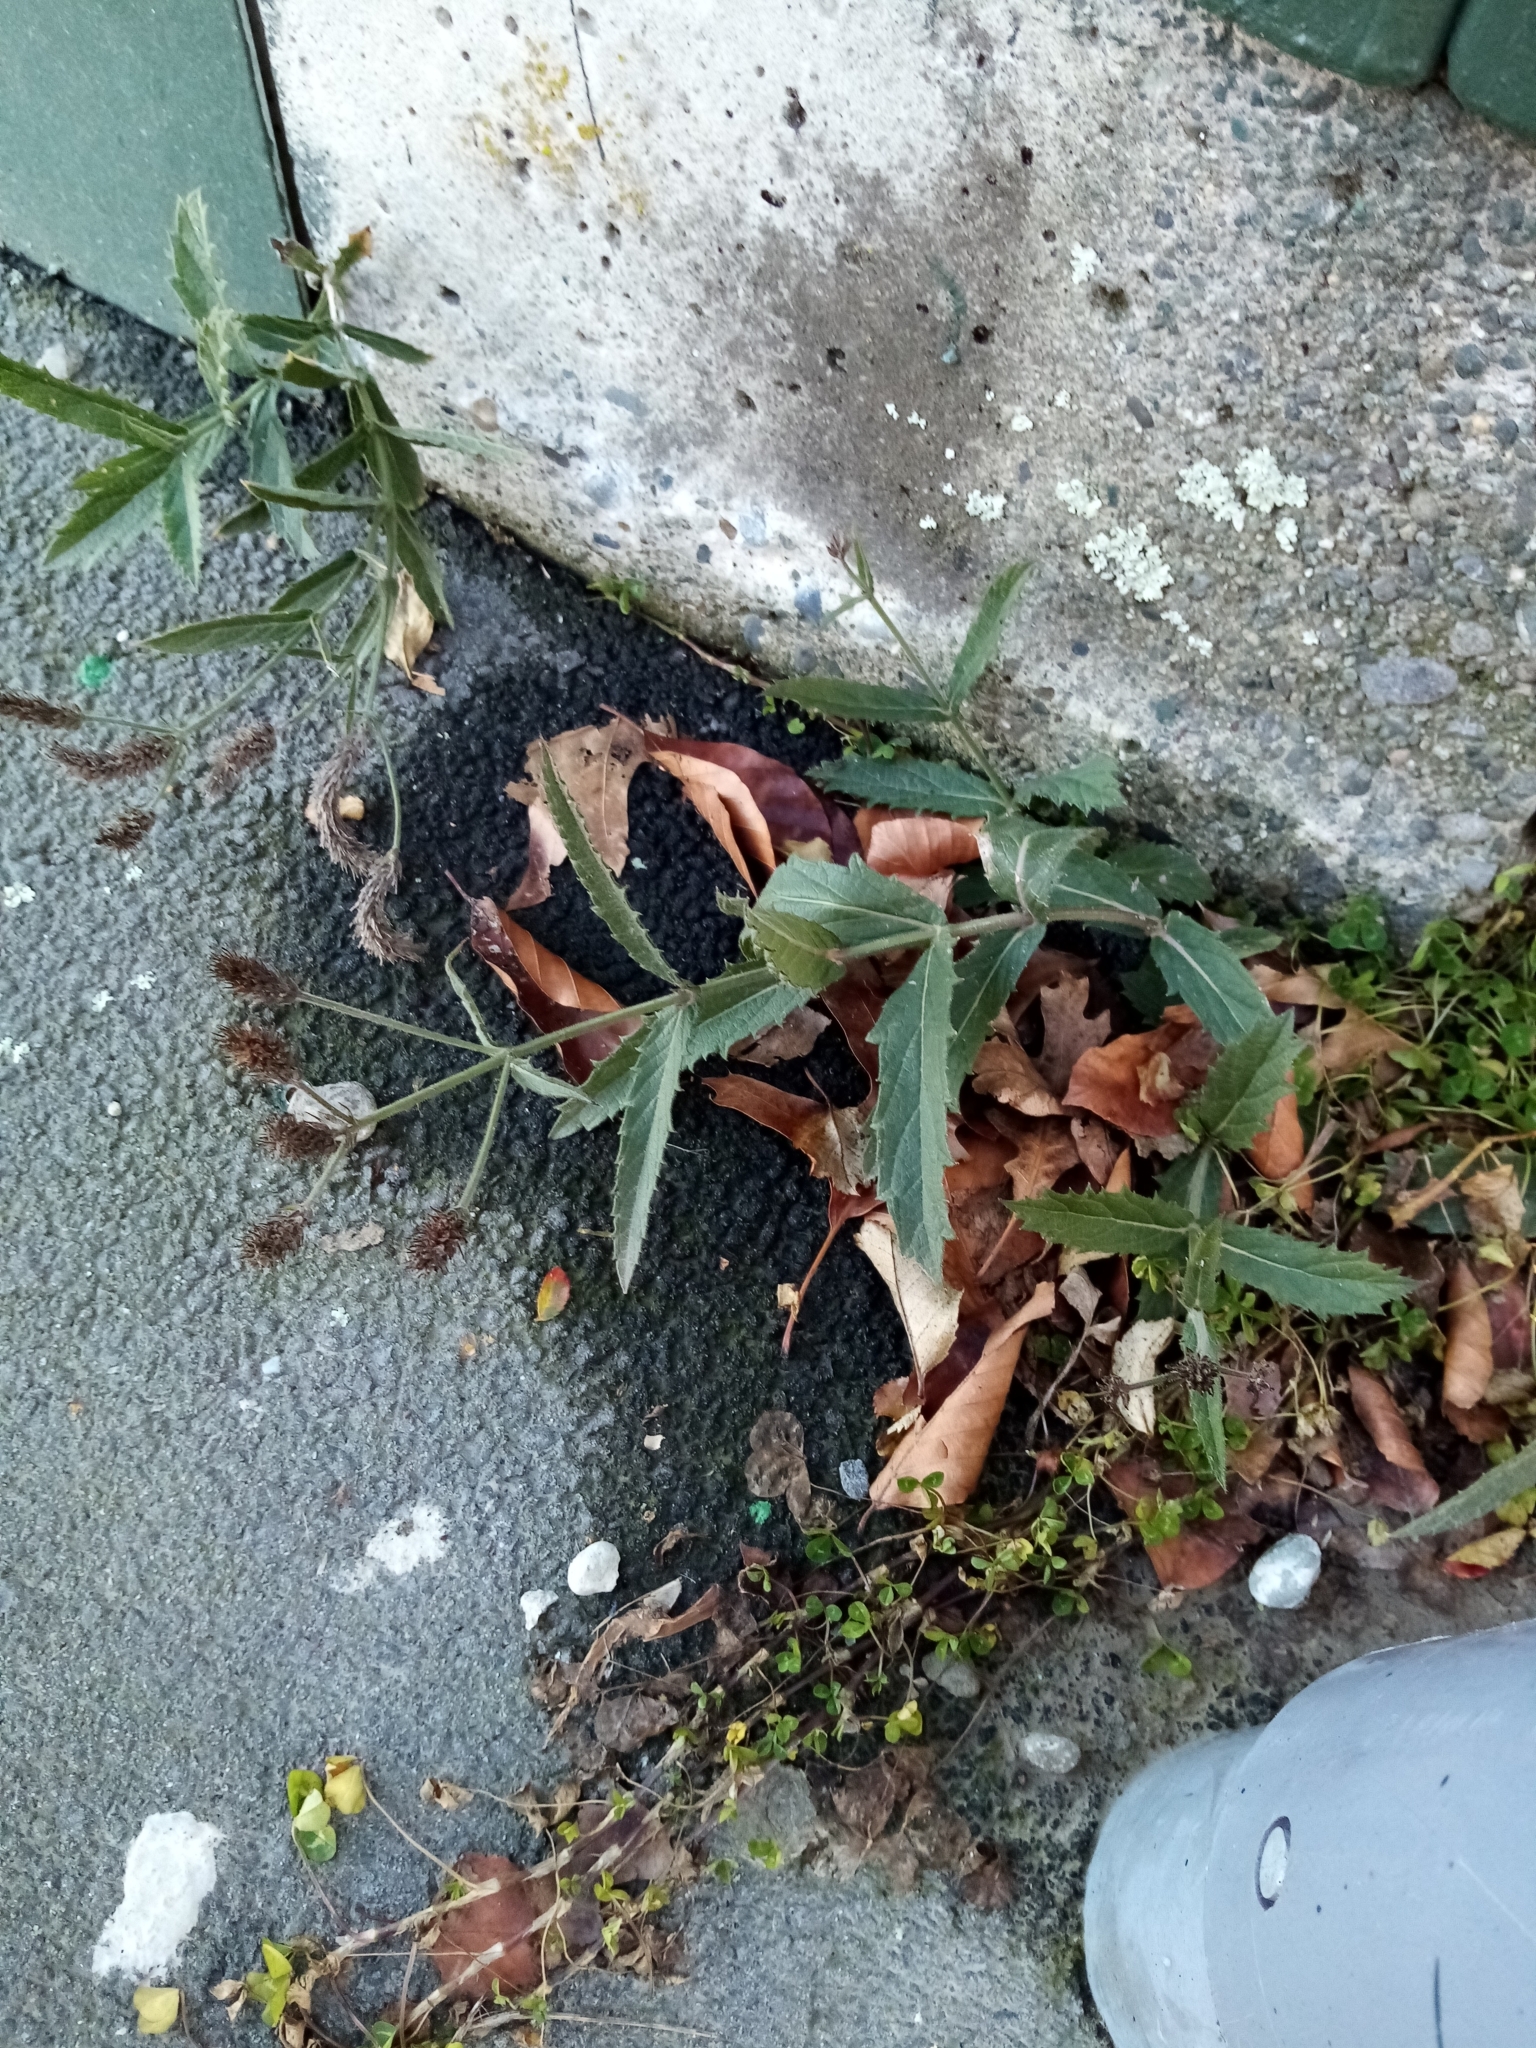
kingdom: Plantae
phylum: Tracheophyta
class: Magnoliopsida
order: Lamiales
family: Verbenaceae
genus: Verbena
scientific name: Verbena rigida
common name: Slender vervain
